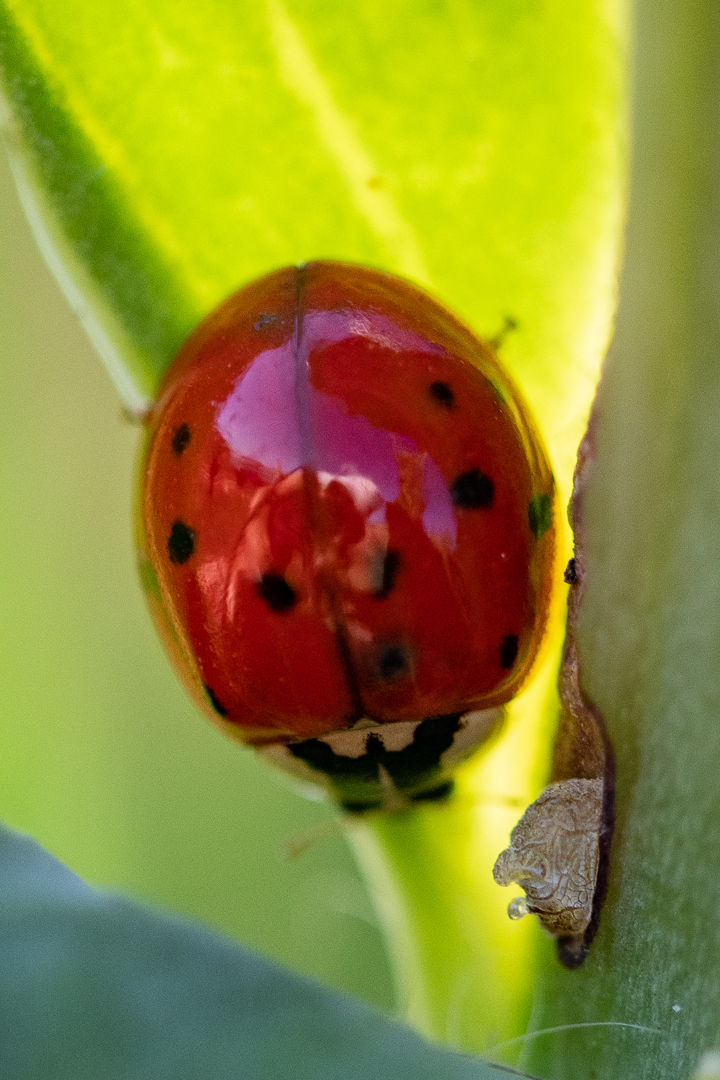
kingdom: Animalia
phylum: Arthropoda
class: Insecta
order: Coleoptera
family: Coccinellidae
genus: Harmonia
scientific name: Harmonia axyridis
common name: Harlequin ladybird
